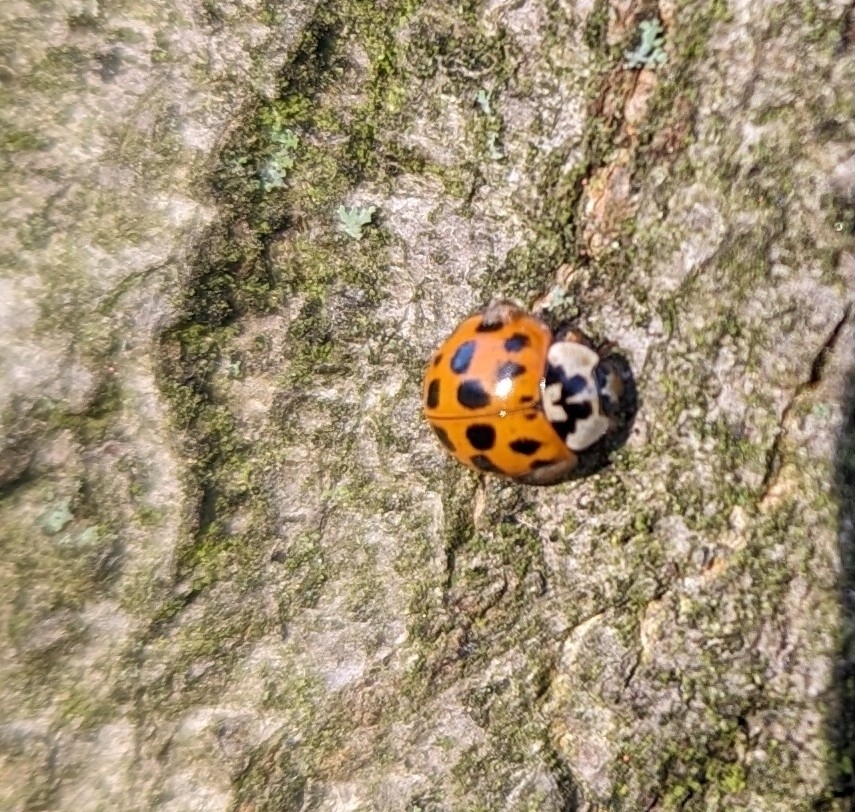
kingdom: Animalia
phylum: Arthropoda
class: Insecta
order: Coleoptera
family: Coccinellidae
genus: Harmonia
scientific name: Harmonia axyridis
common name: Harlequin ladybird
